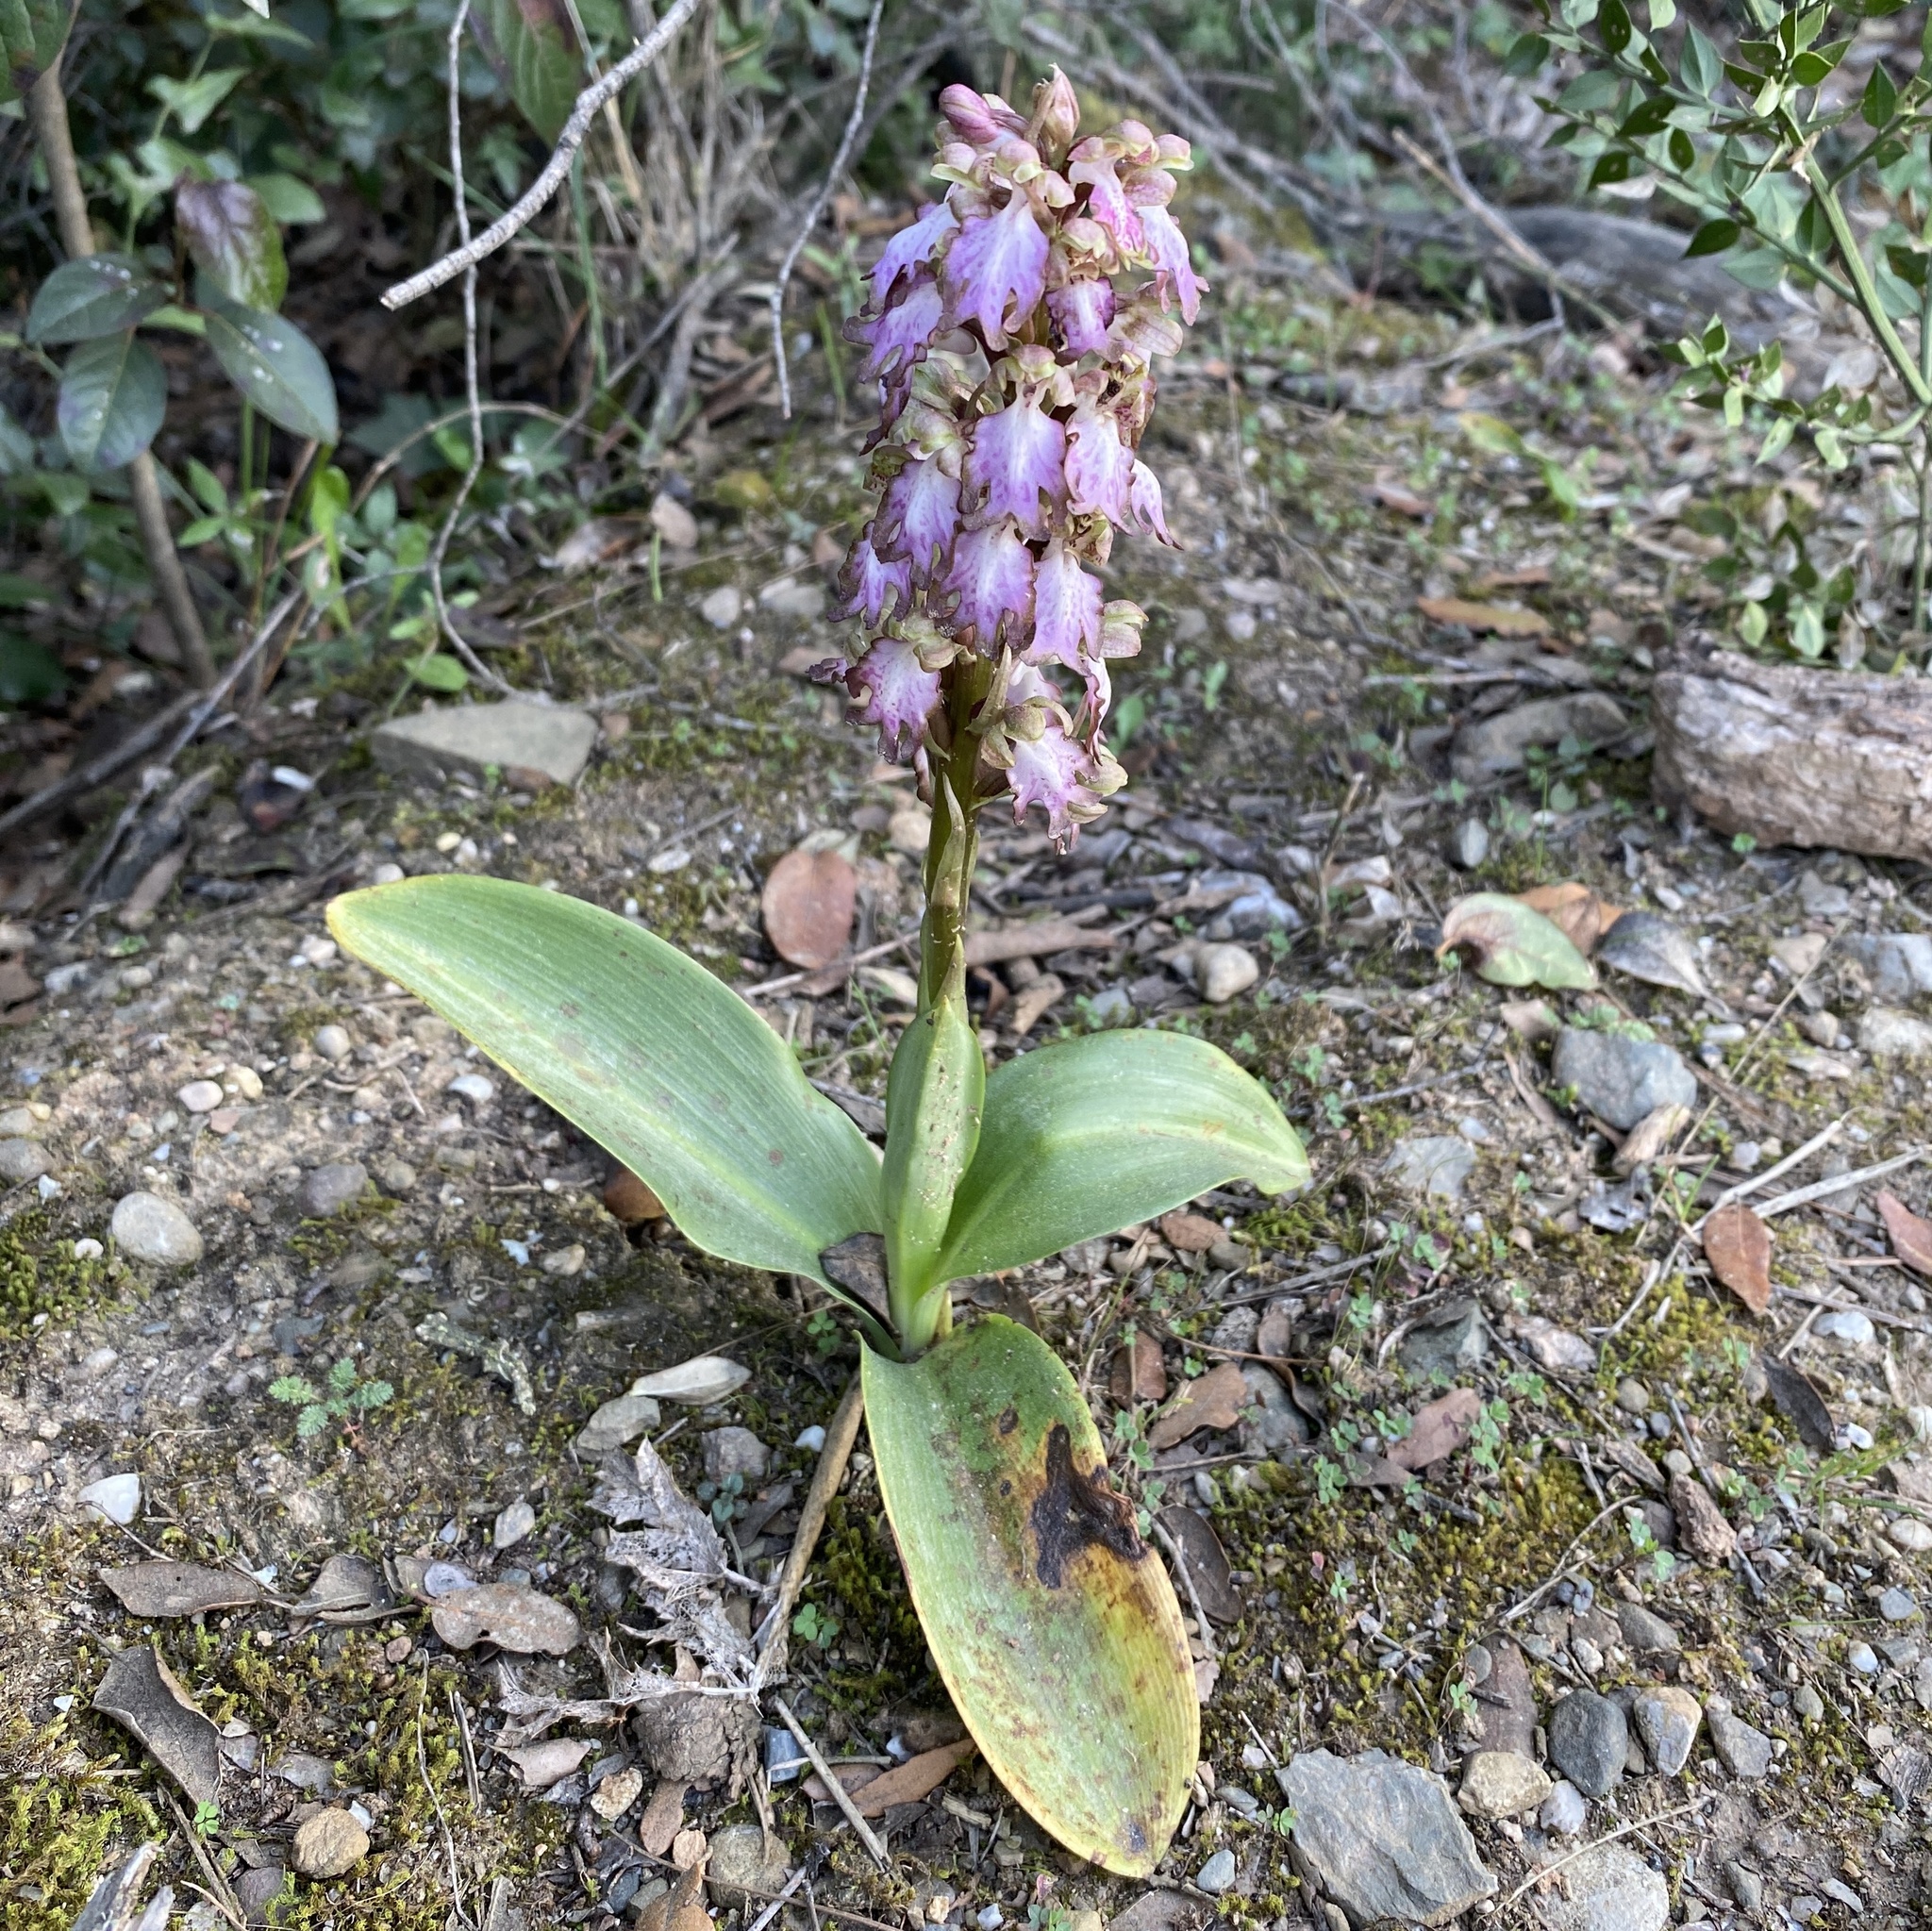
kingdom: Plantae
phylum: Tracheophyta
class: Liliopsida
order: Asparagales
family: Orchidaceae
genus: Himantoglossum
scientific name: Himantoglossum robertianum
